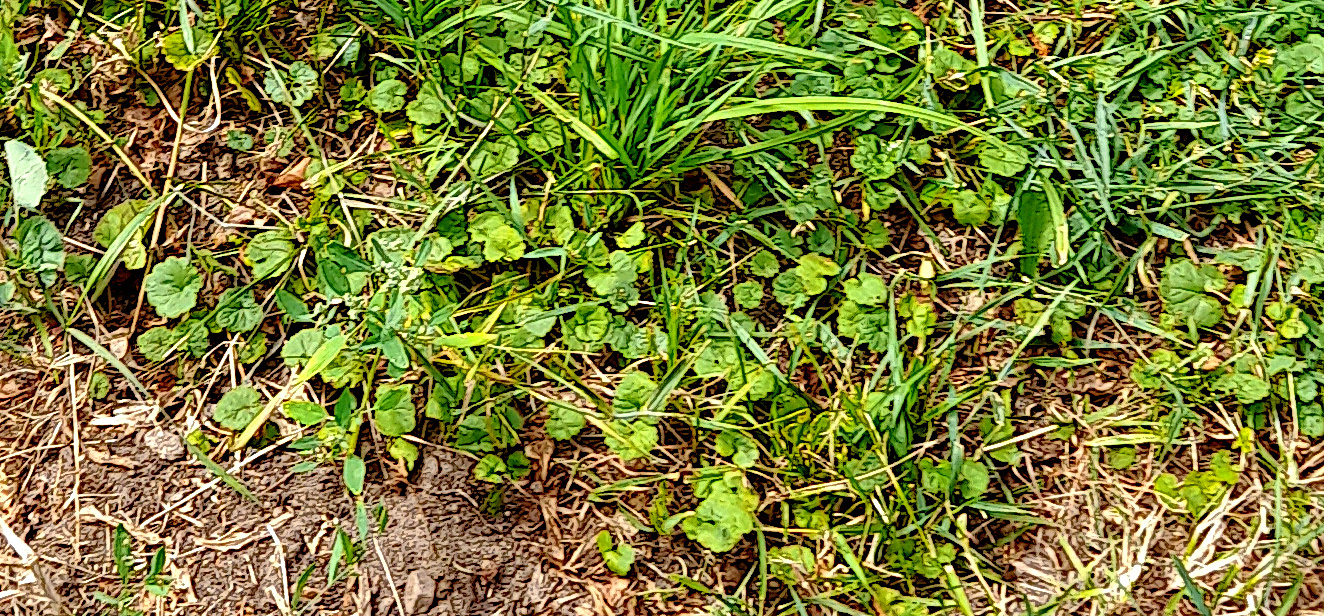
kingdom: Plantae
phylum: Tracheophyta
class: Magnoliopsida
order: Lamiales
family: Lamiaceae
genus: Glechoma
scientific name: Glechoma hederacea
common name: Ground ivy
